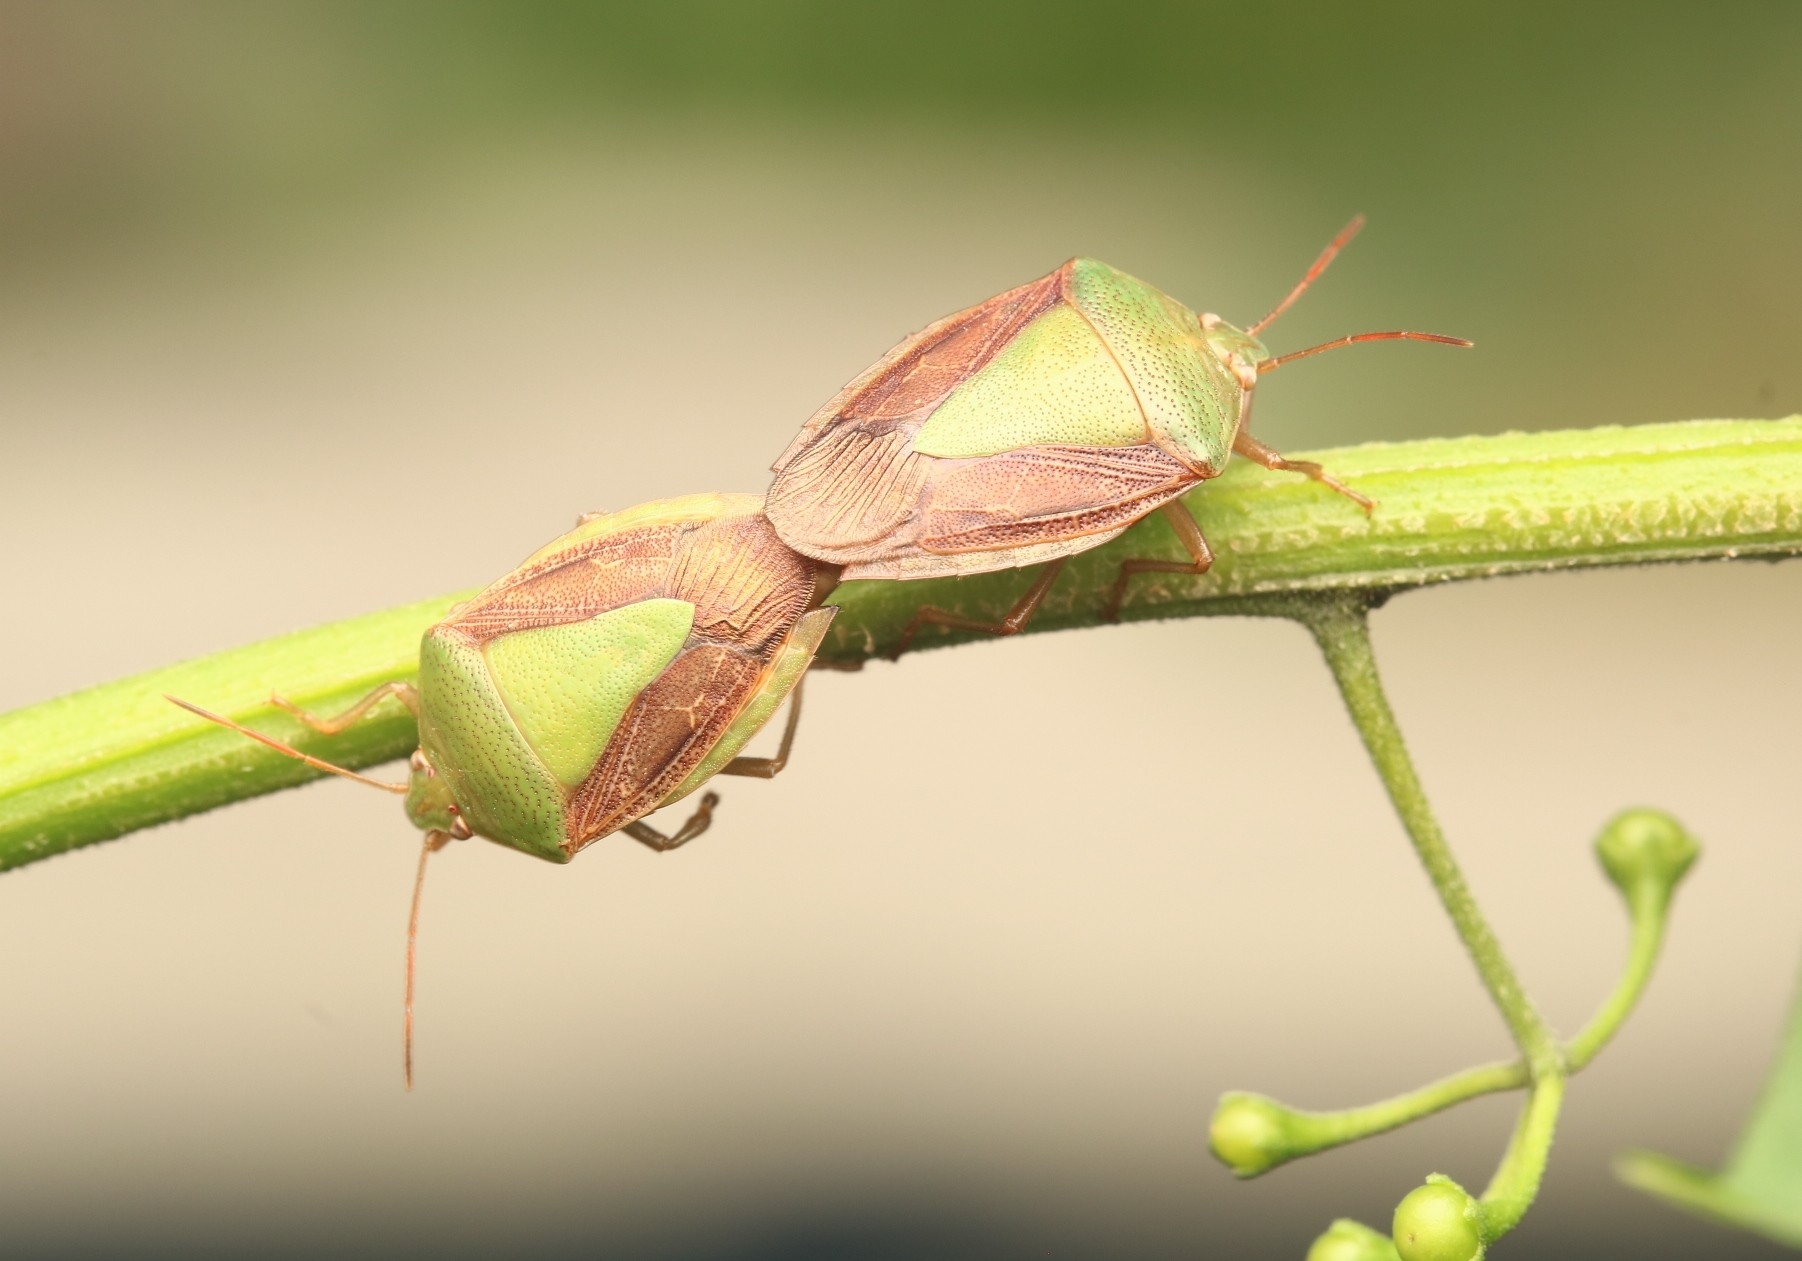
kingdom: Animalia
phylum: Arthropoda
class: Insecta
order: Hemiptera
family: Pentatomidae
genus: Edessa
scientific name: Edessa meditabunda
